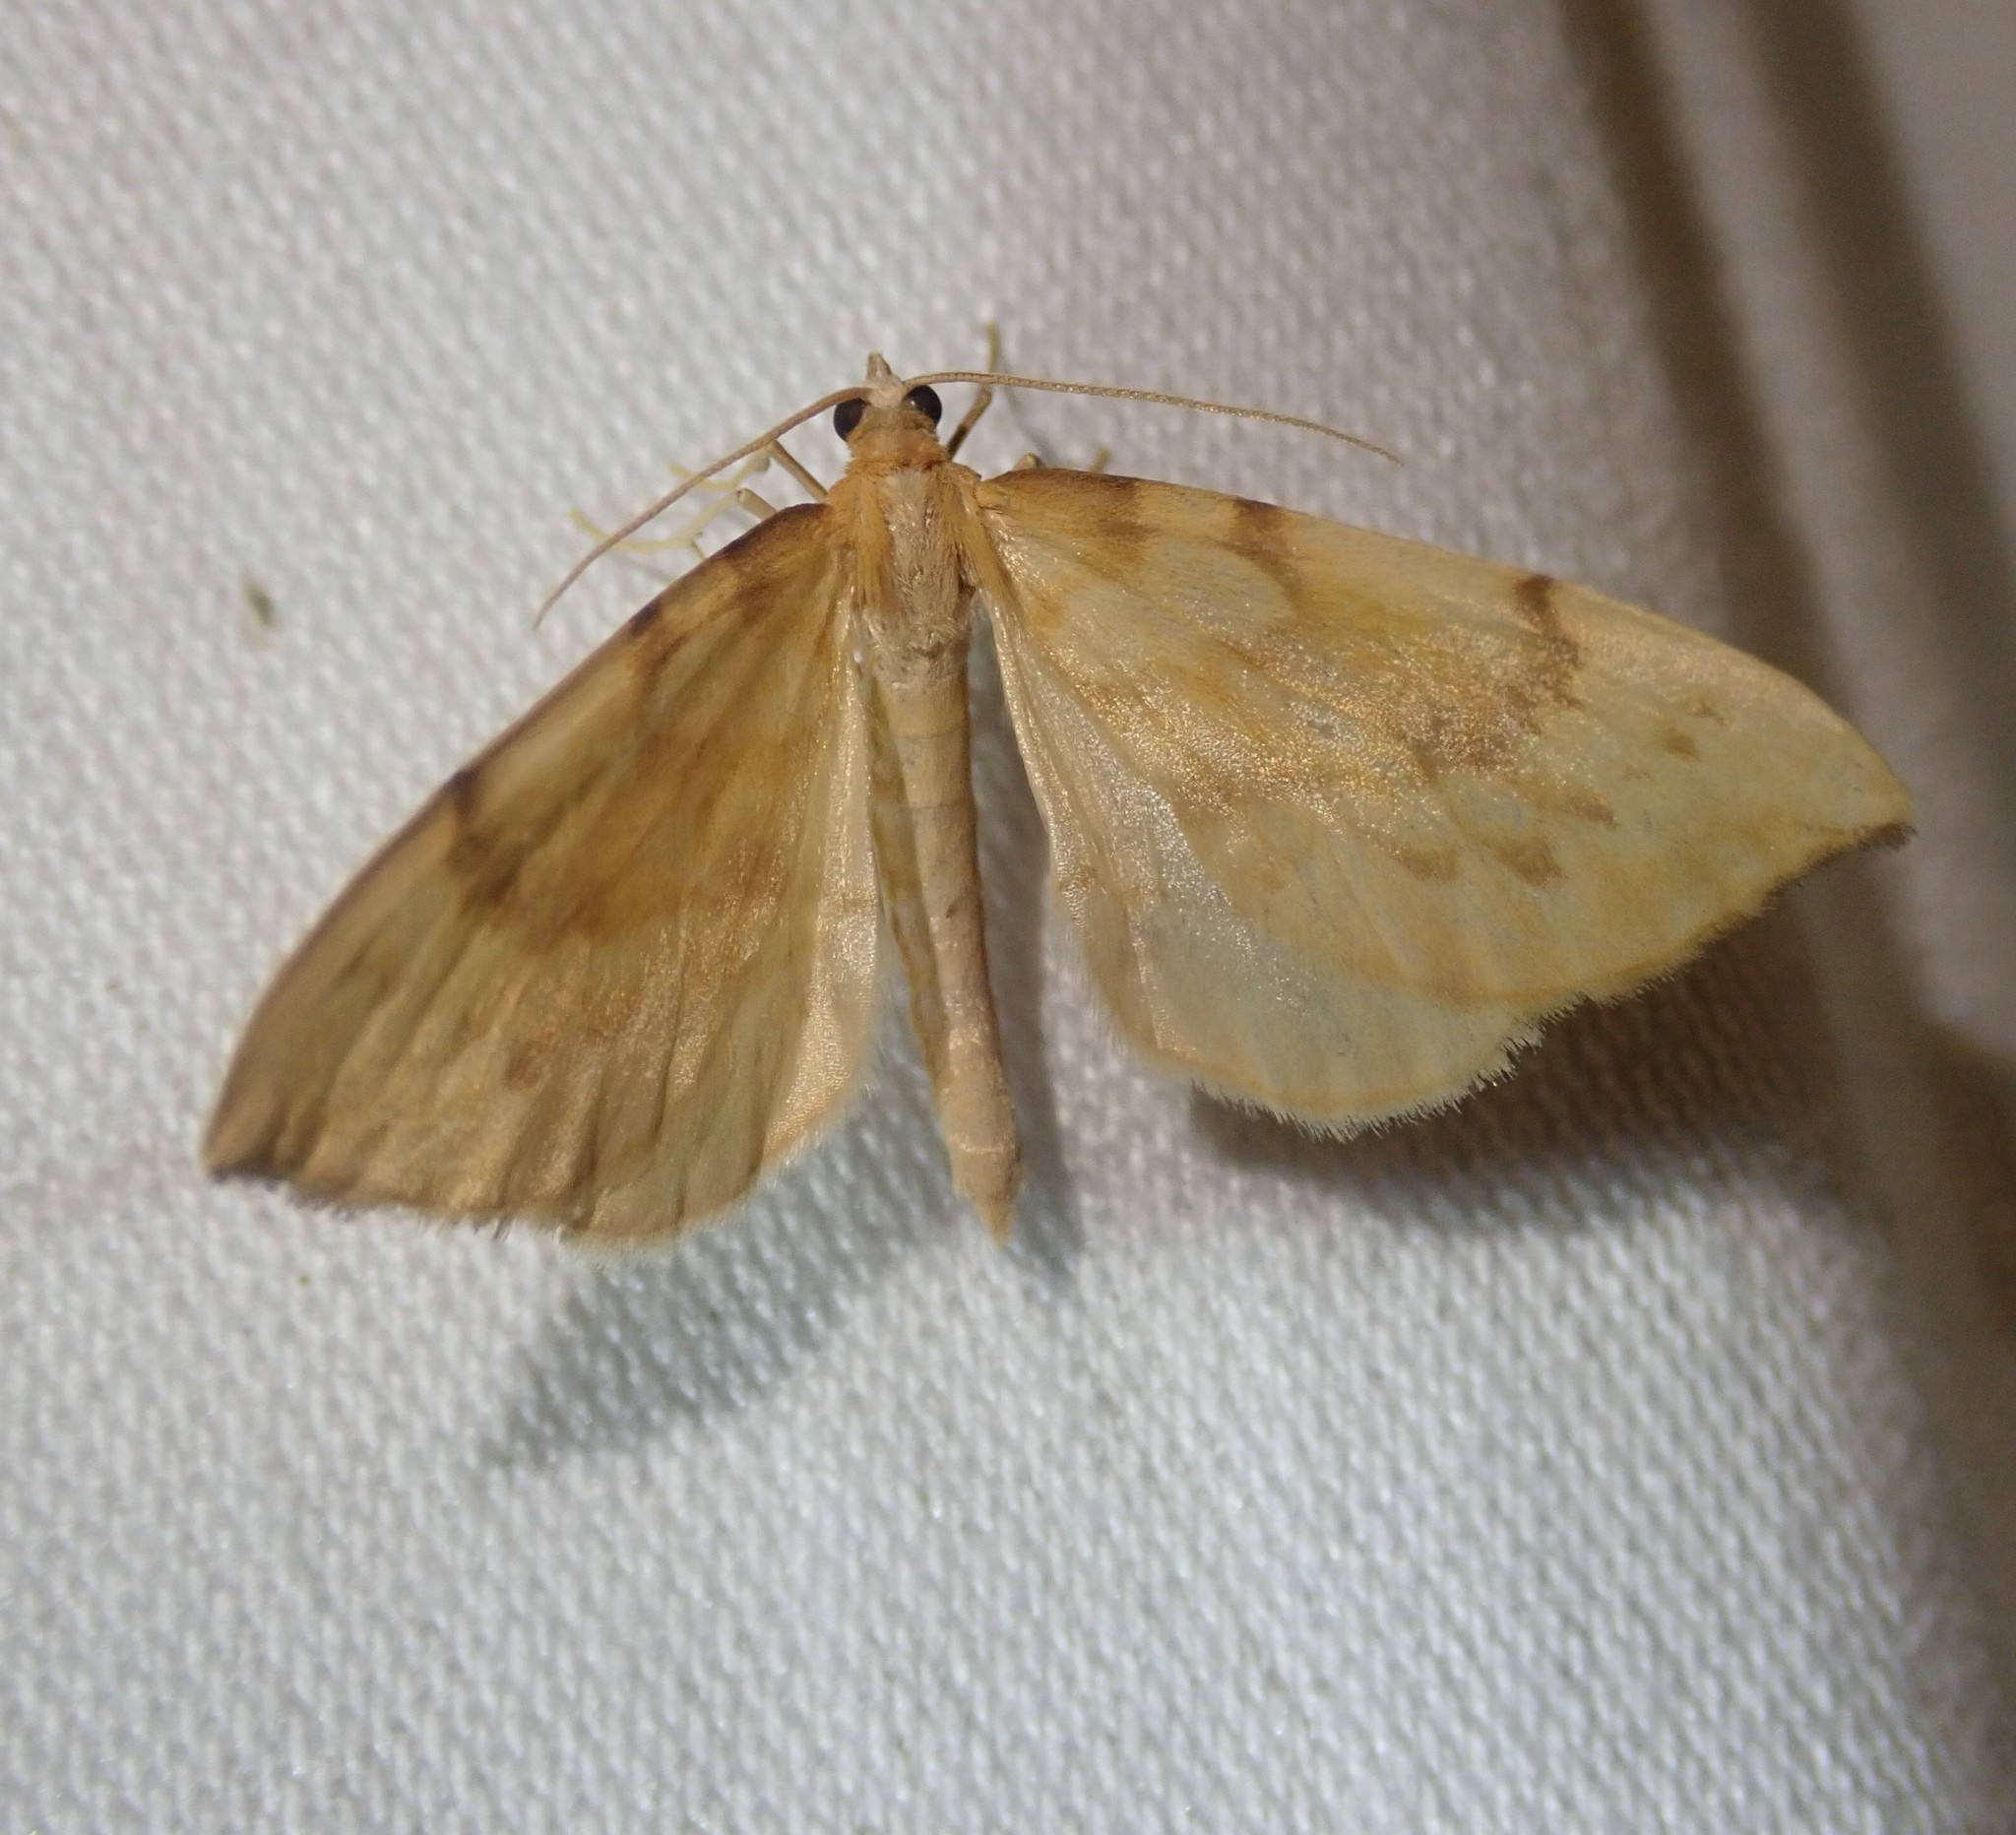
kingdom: Animalia
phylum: Arthropoda
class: Insecta
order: Lepidoptera
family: Geometridae
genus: Eulithis
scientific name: Eulithis pyraliata
